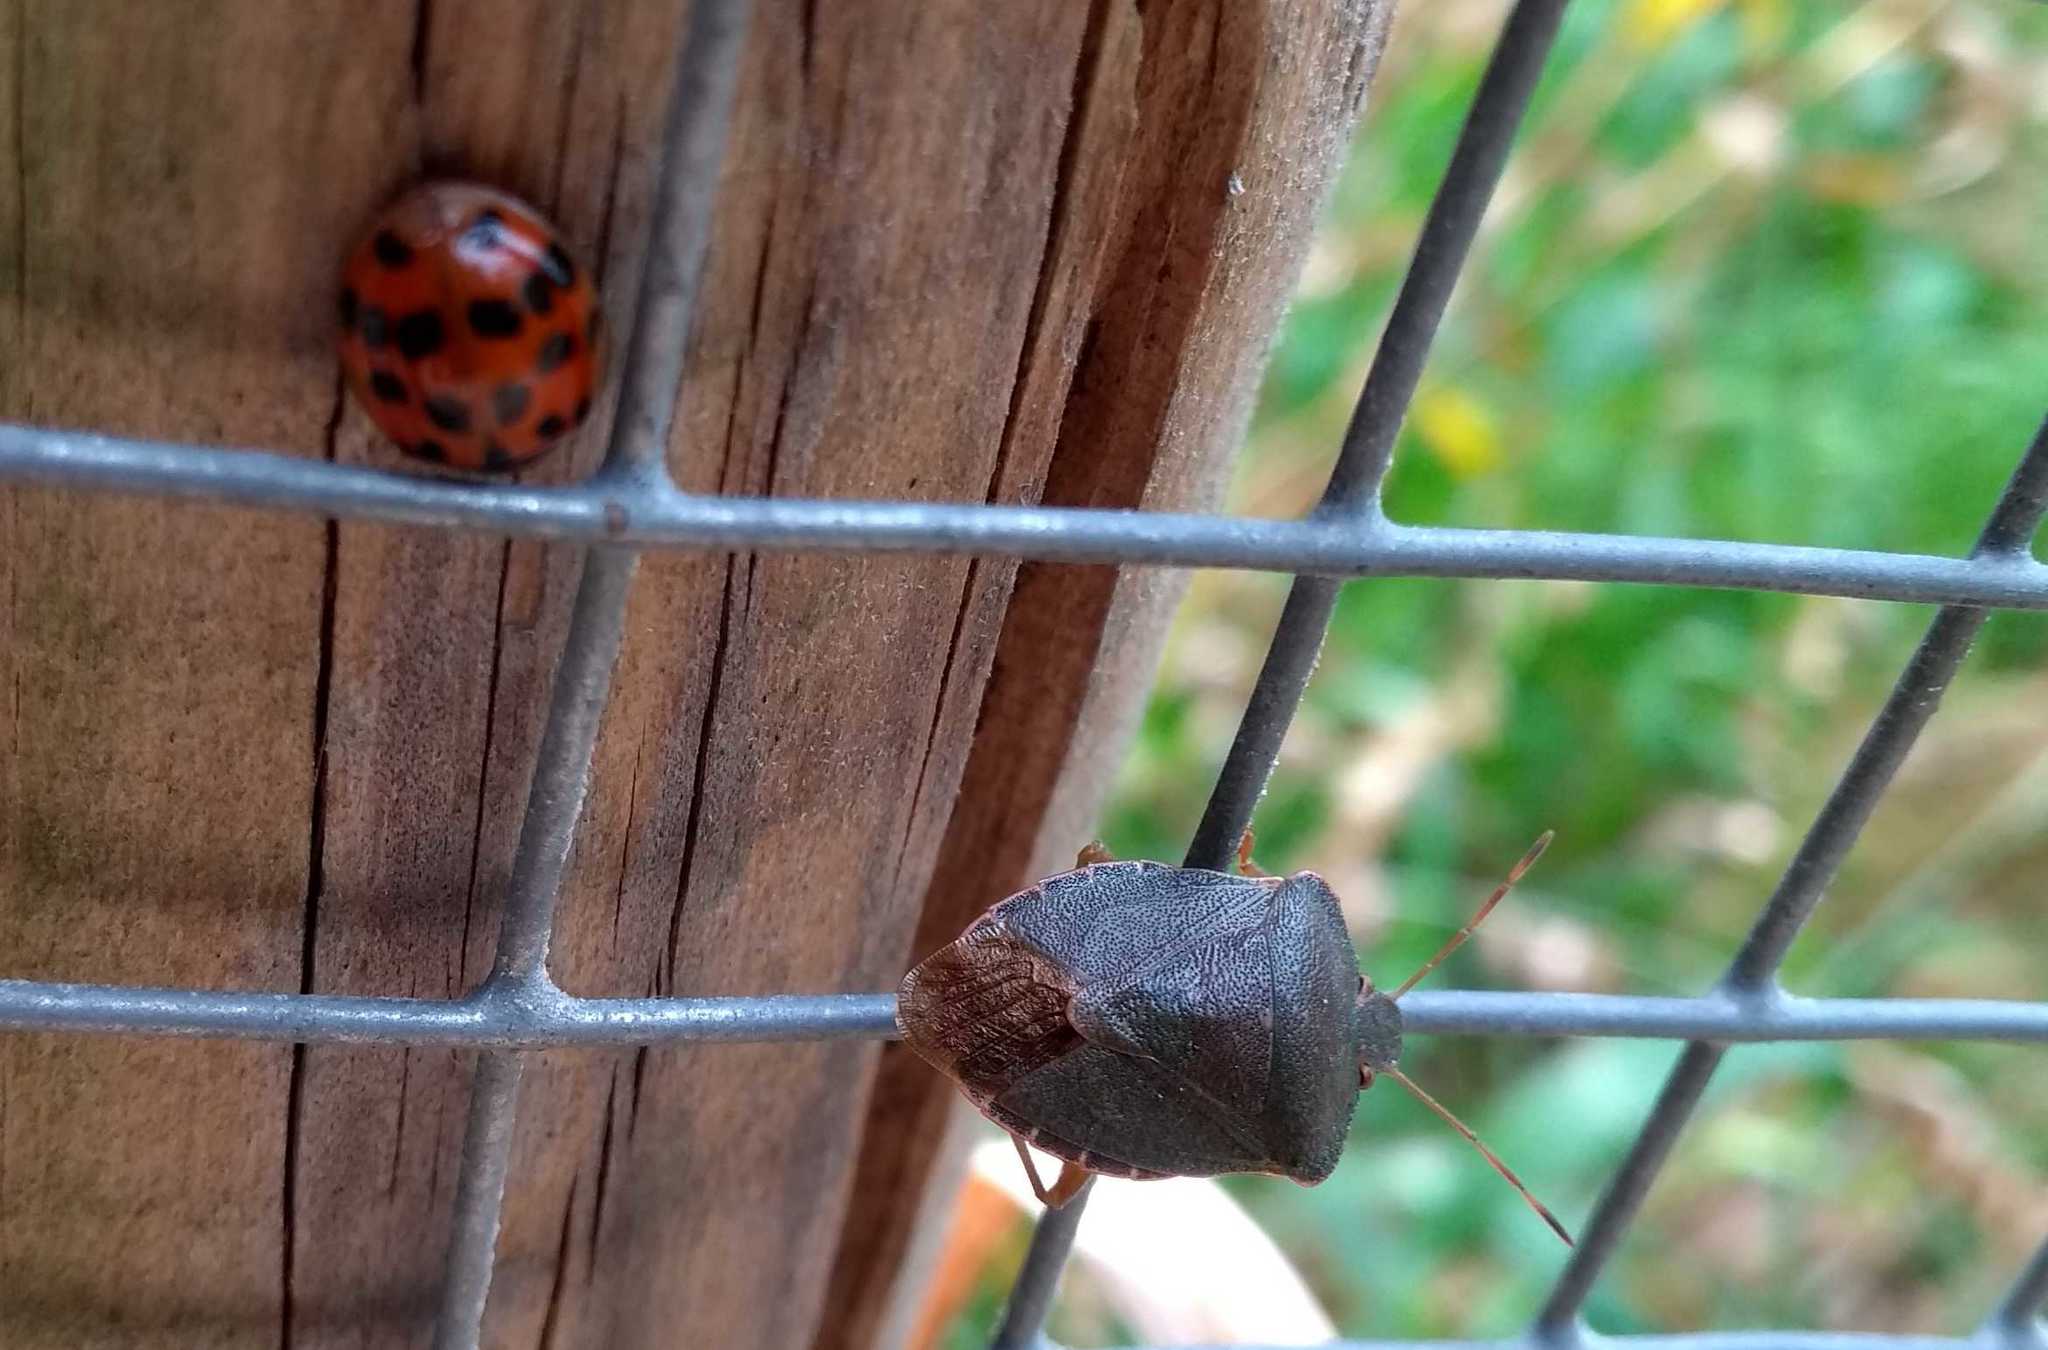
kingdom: Animalia
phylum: Arthropoda
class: Insecta
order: Hemiptera
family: Pentatomidae
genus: Palomena
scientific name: Palomena prasina
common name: Green shieldbug
